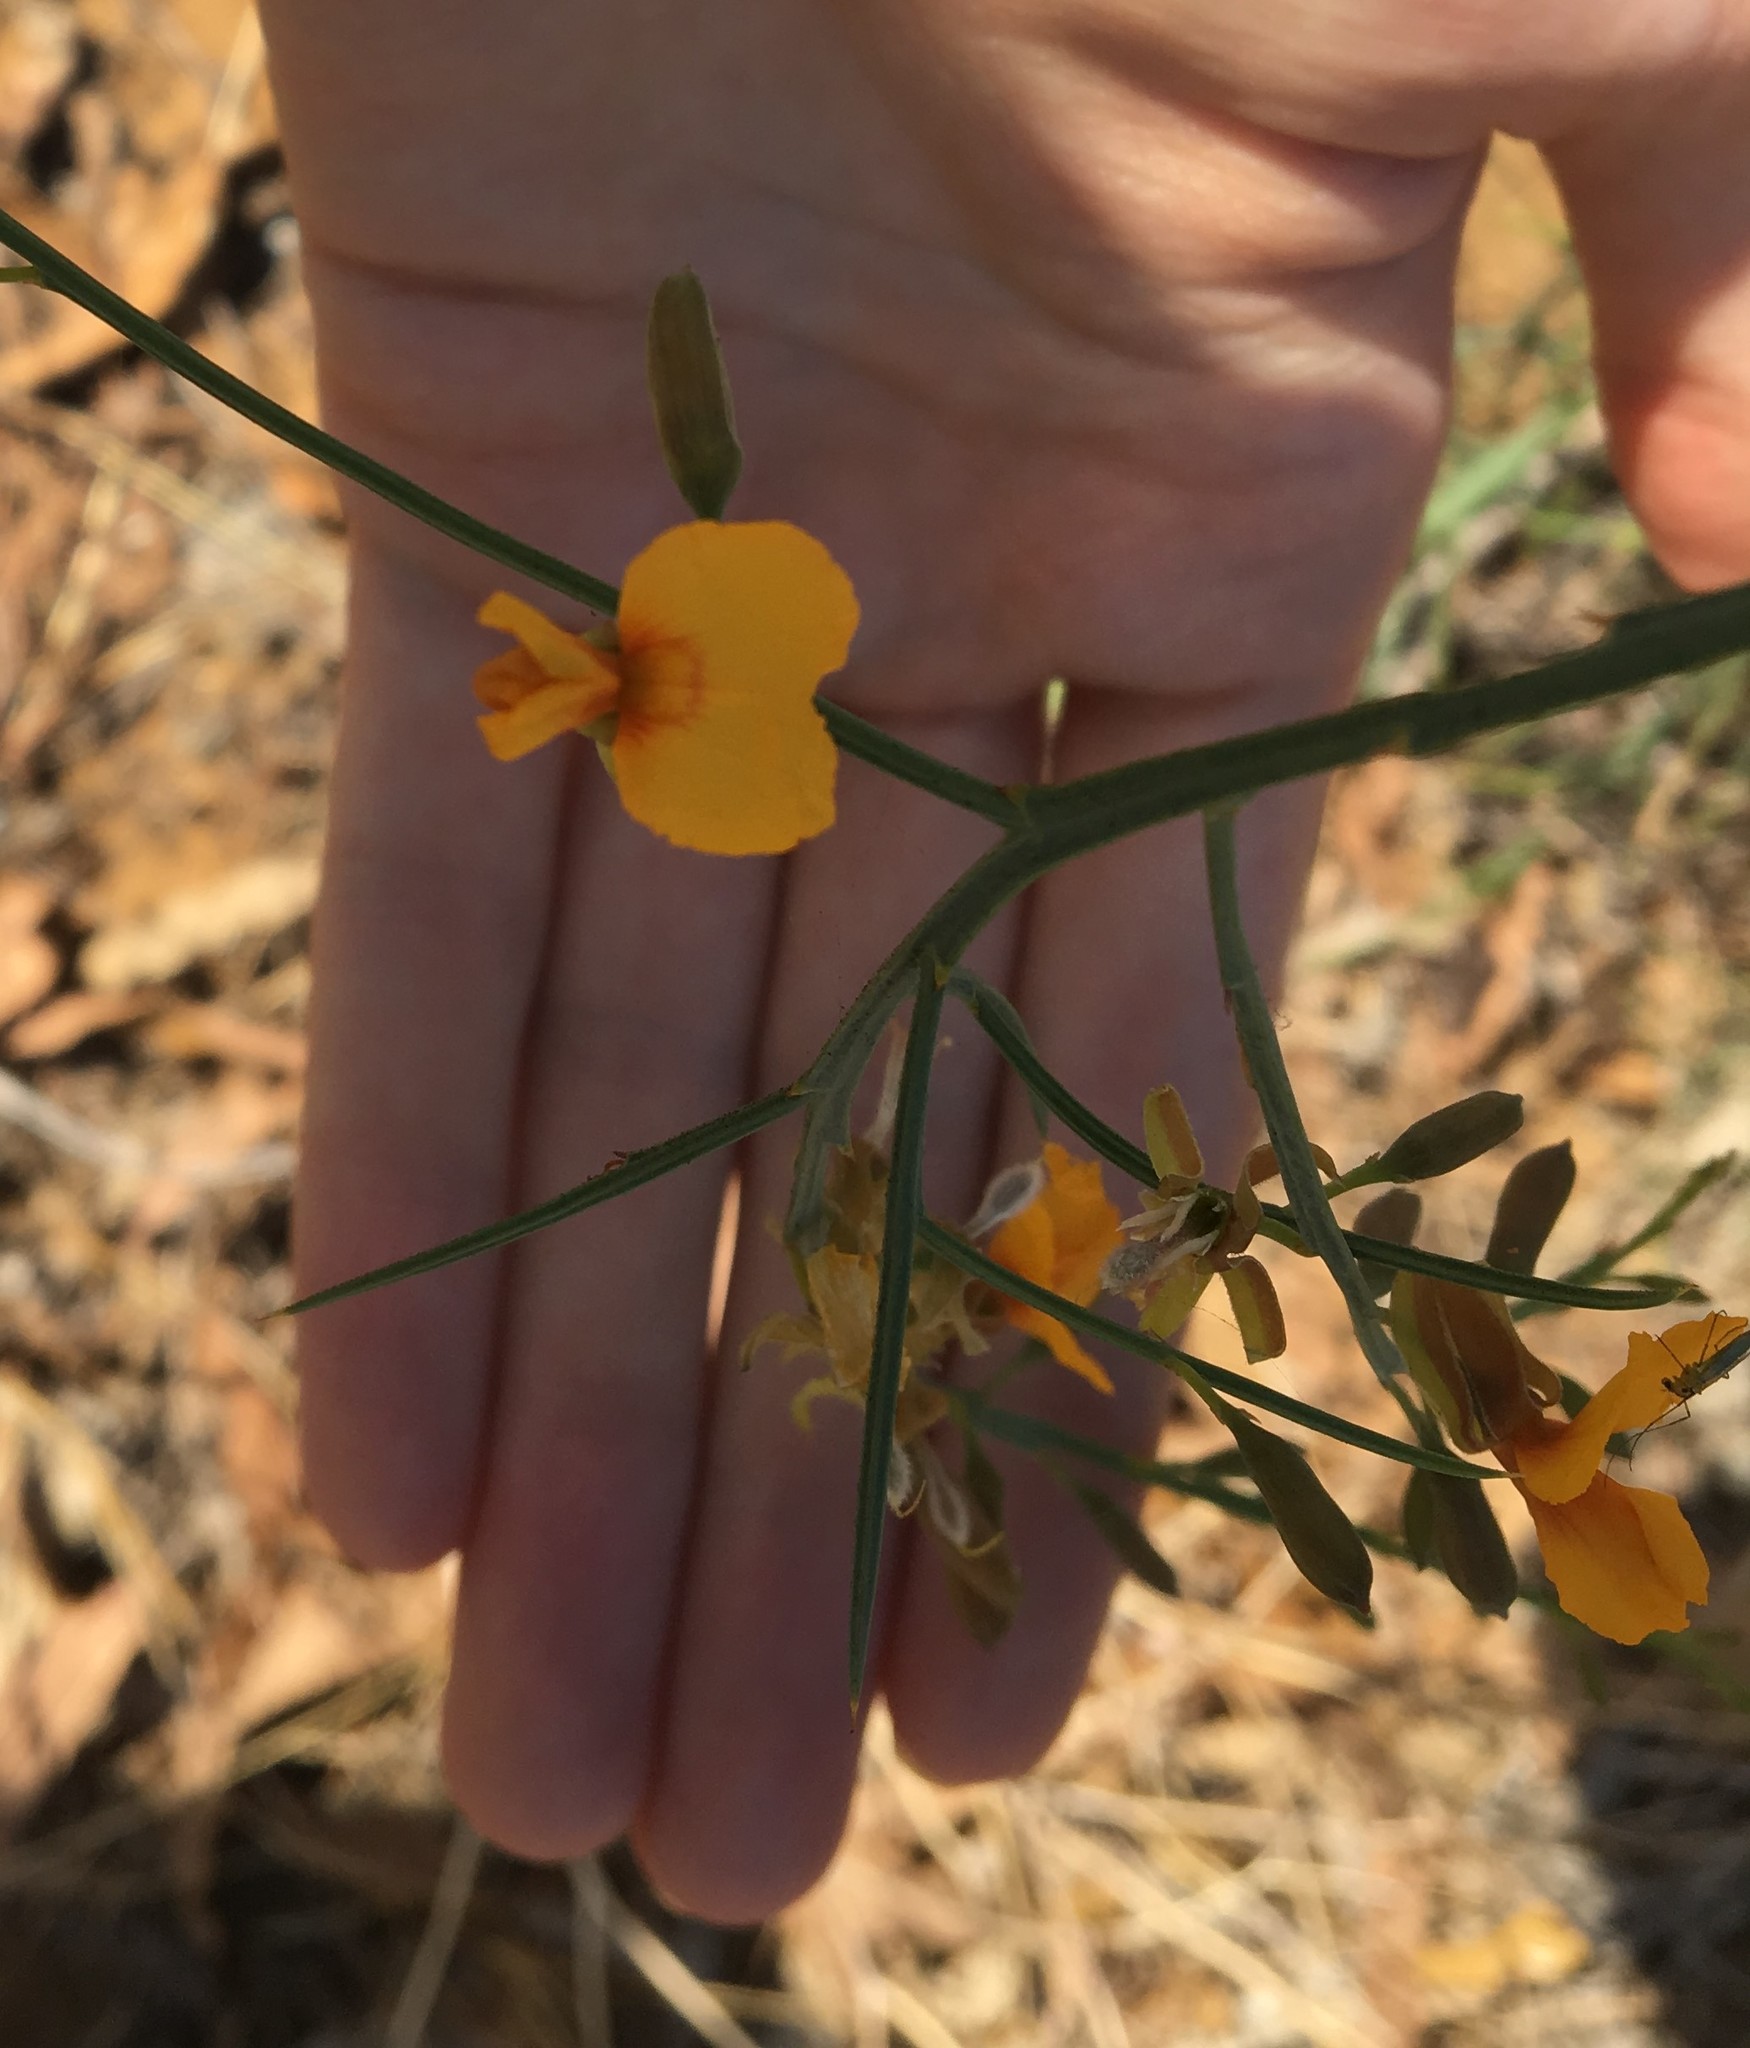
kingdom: Plantae
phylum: Tracheophyta
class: Magnoliopsida
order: Fabales
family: Fabaceae
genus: Jacksonia
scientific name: Jacksonia sternbergiana
